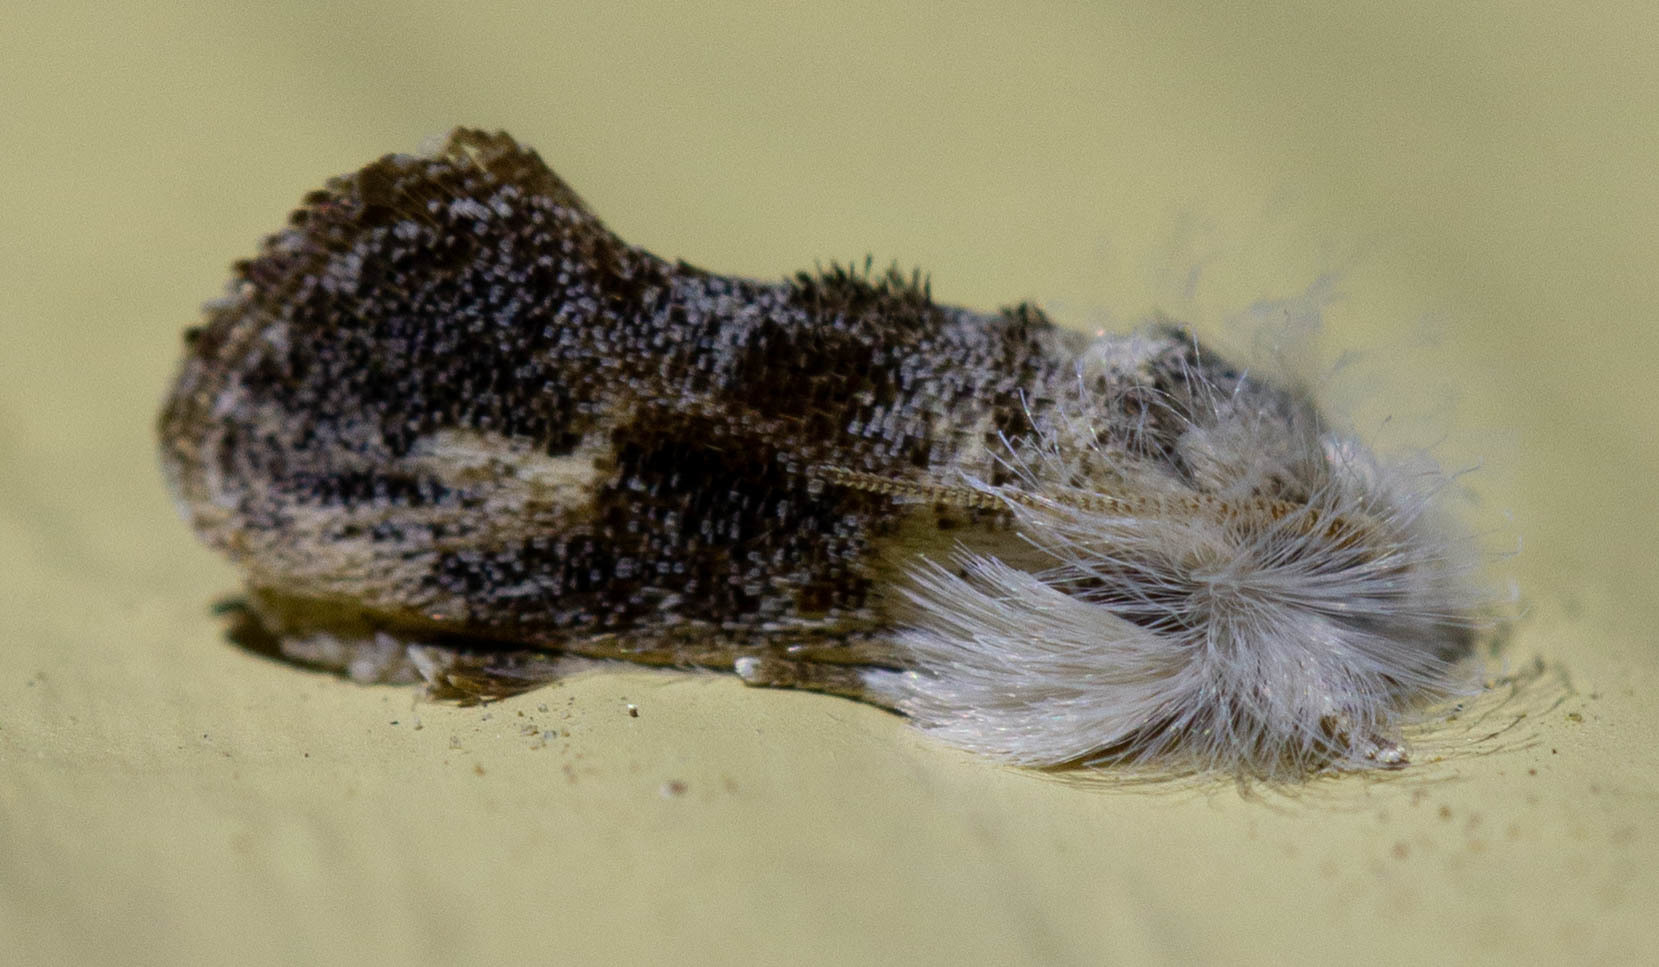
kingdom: Animalia
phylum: Arthropoda
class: Insecta
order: Lepidoptera
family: Tineidae
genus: Acrolophus
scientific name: Acrolophus mycetophagus
